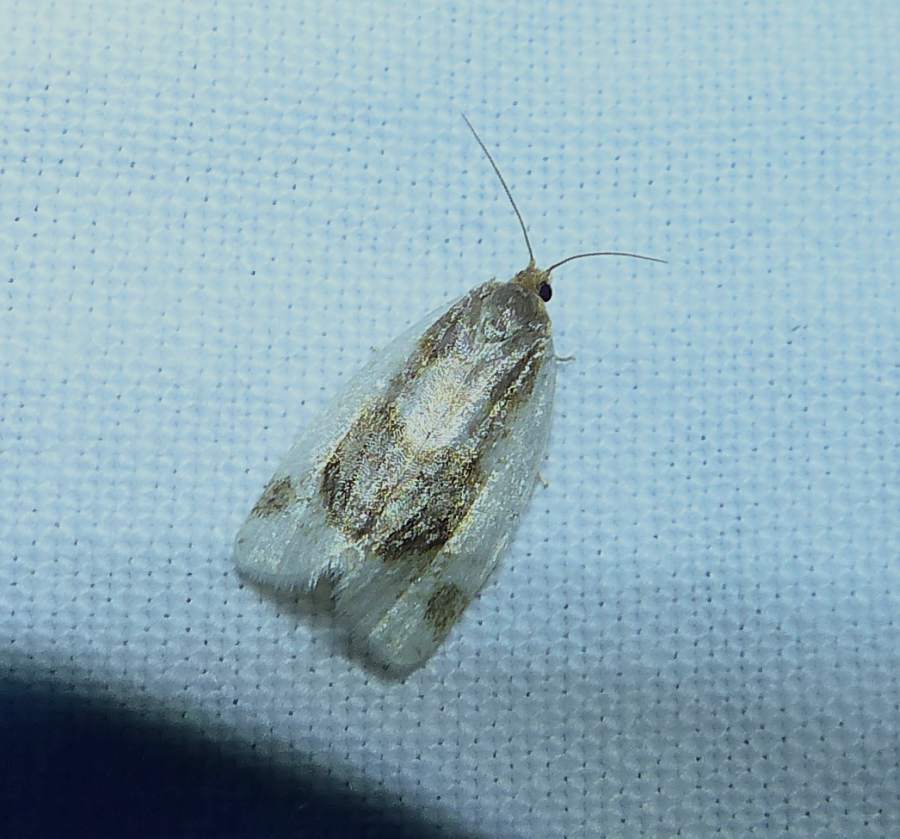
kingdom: Animalia
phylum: Arthropoda
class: Insecta
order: Lepidoptera
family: Tortricidae
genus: Clepsis
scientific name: Clepsis melaleucanus
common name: American apple tortrix
